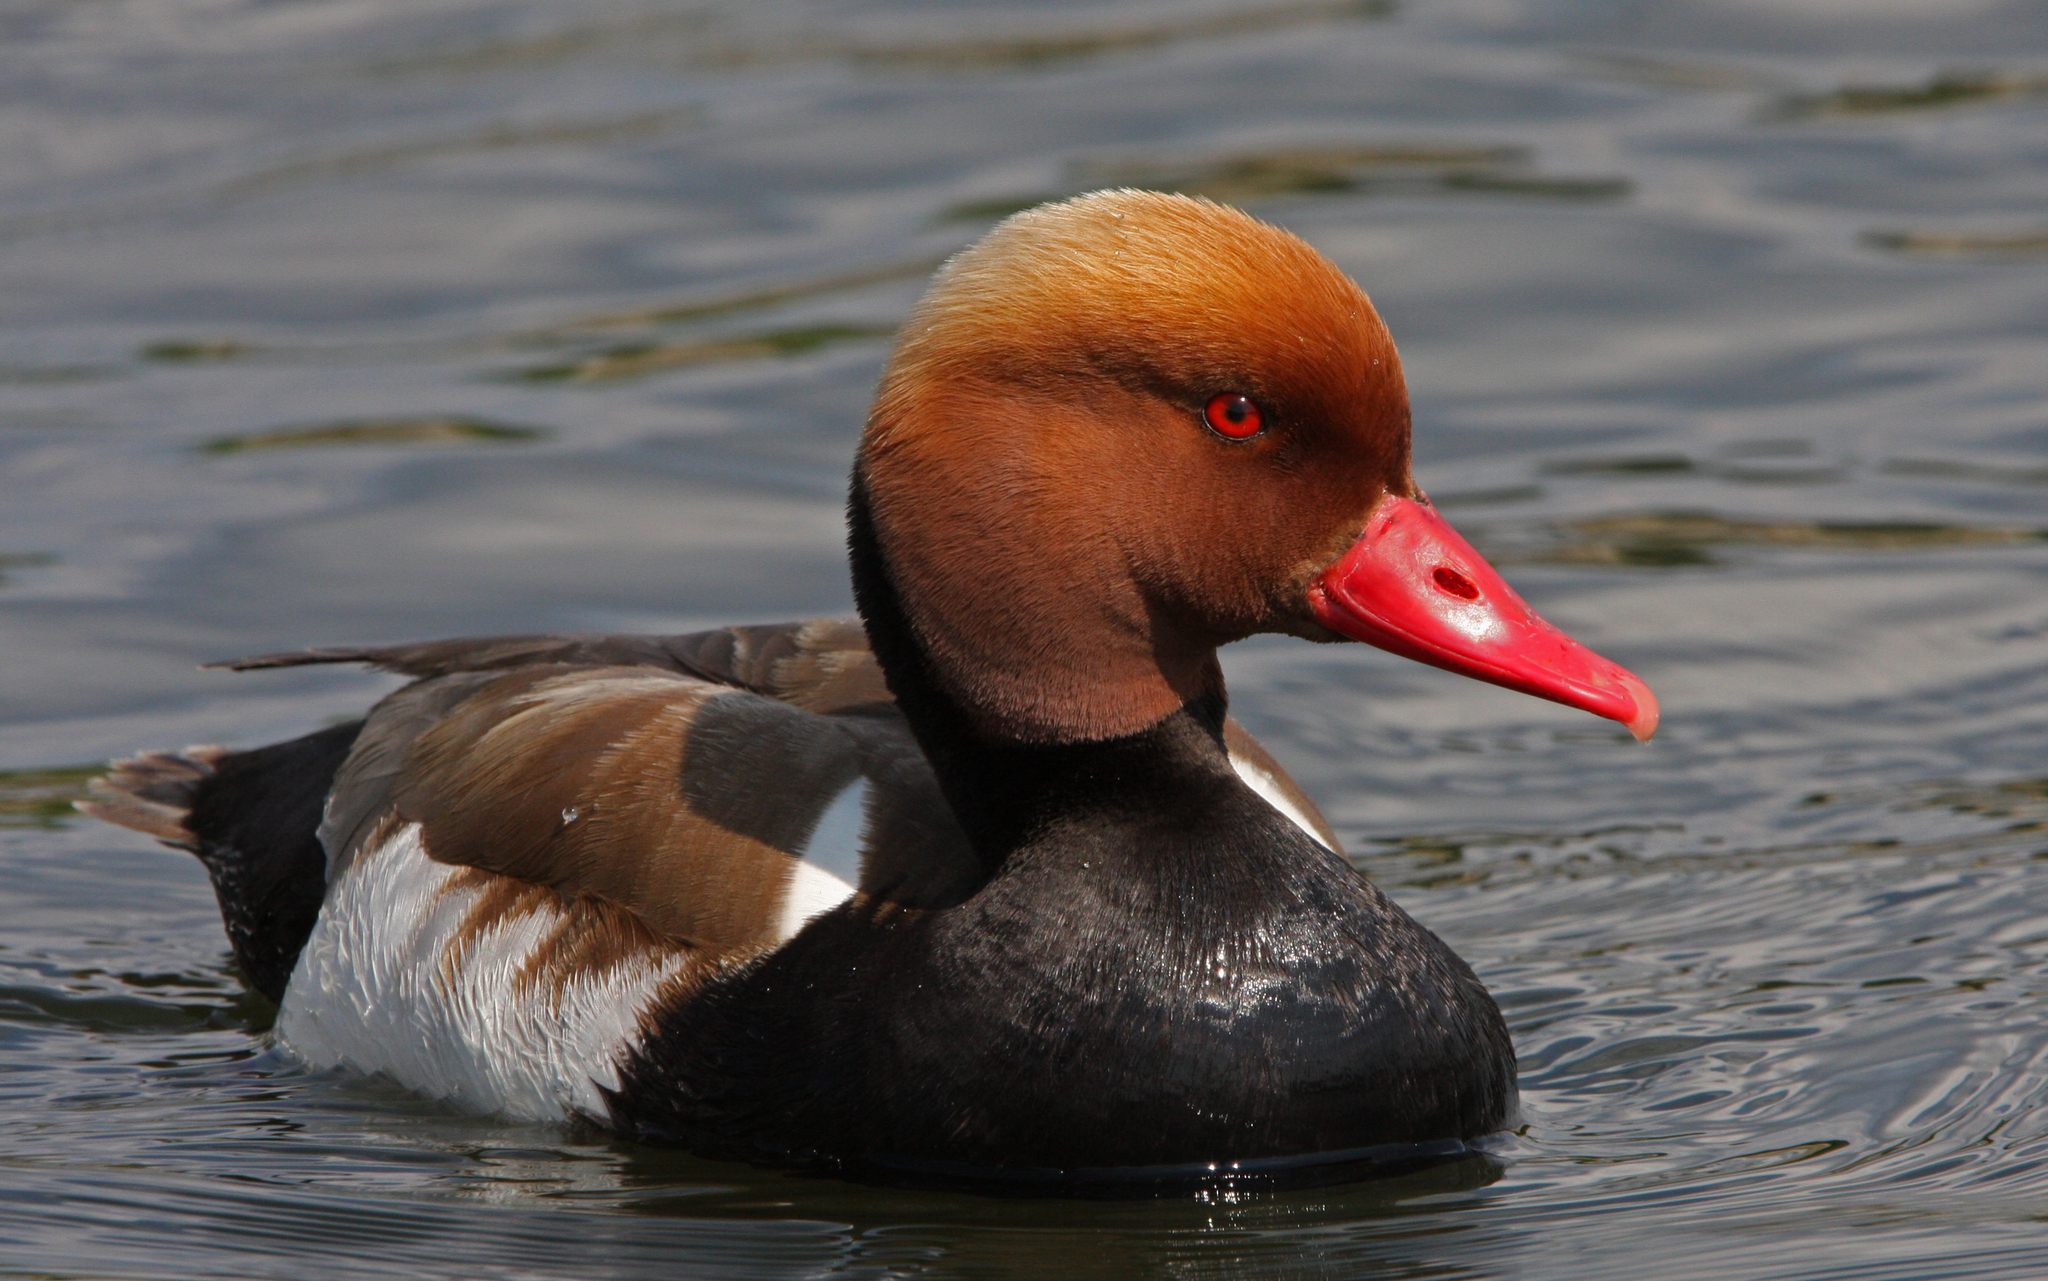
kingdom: Animalia
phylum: Chordata
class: Aves
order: Anseriformes
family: Anatidae
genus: Netta
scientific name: Netta rufina
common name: Red-crested pochard
